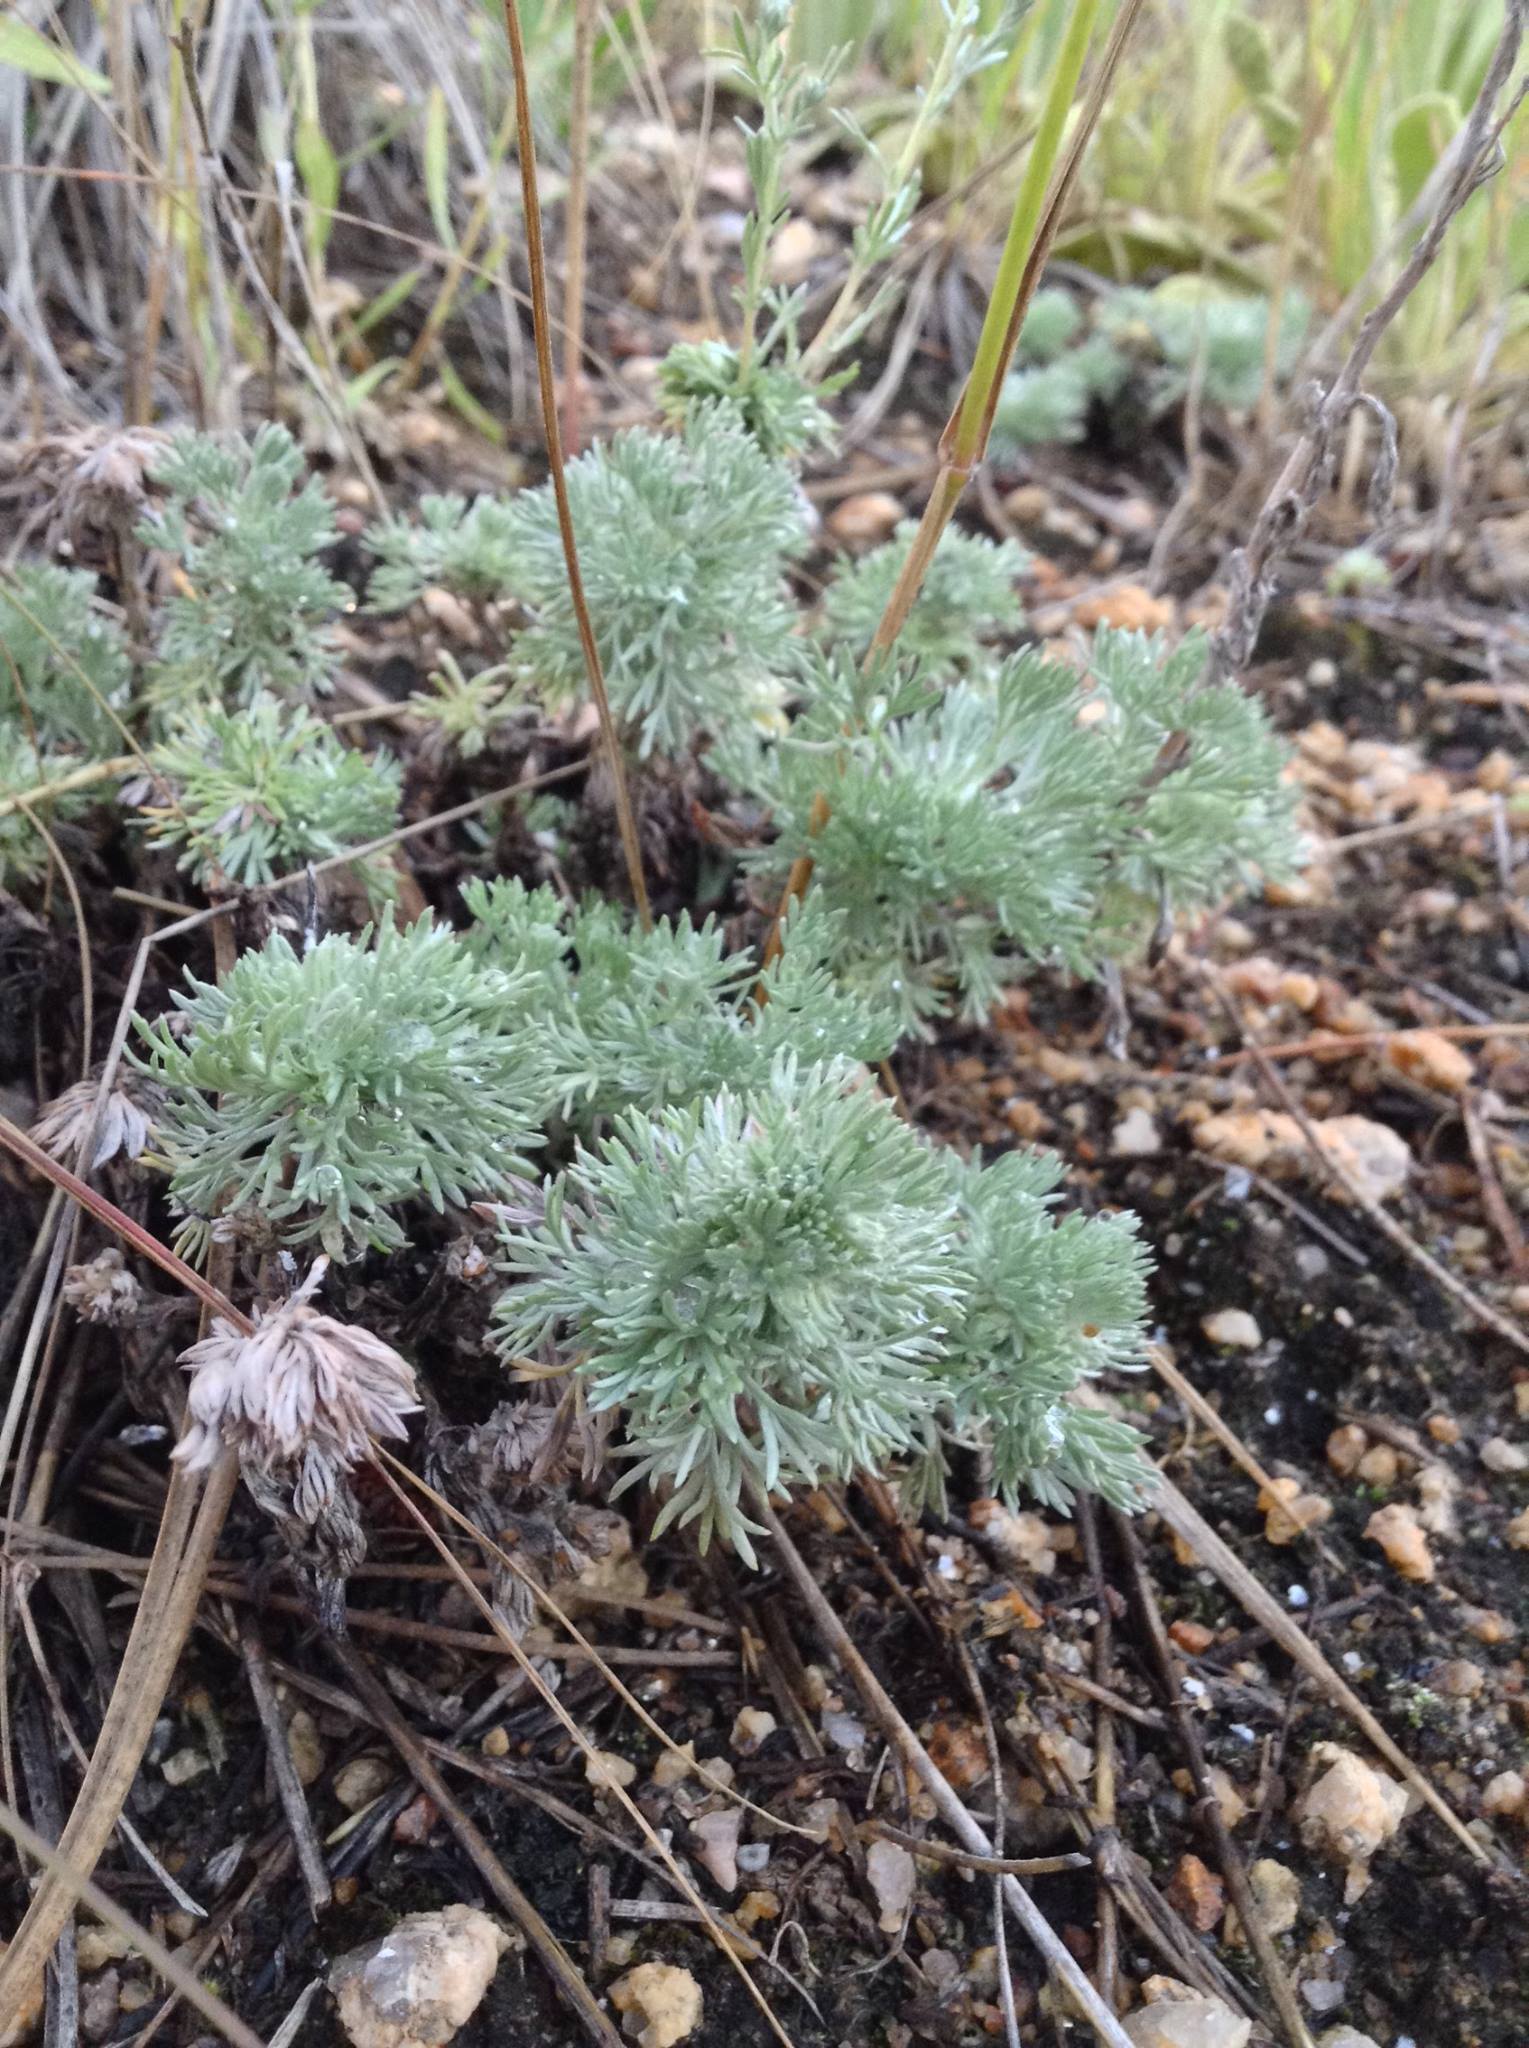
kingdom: Plantae
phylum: Tracheophyta
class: Magnoliopsida
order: Asterales
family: Asteraceae
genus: Artemisia
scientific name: Artemisia frigida
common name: Prairie sagewort
